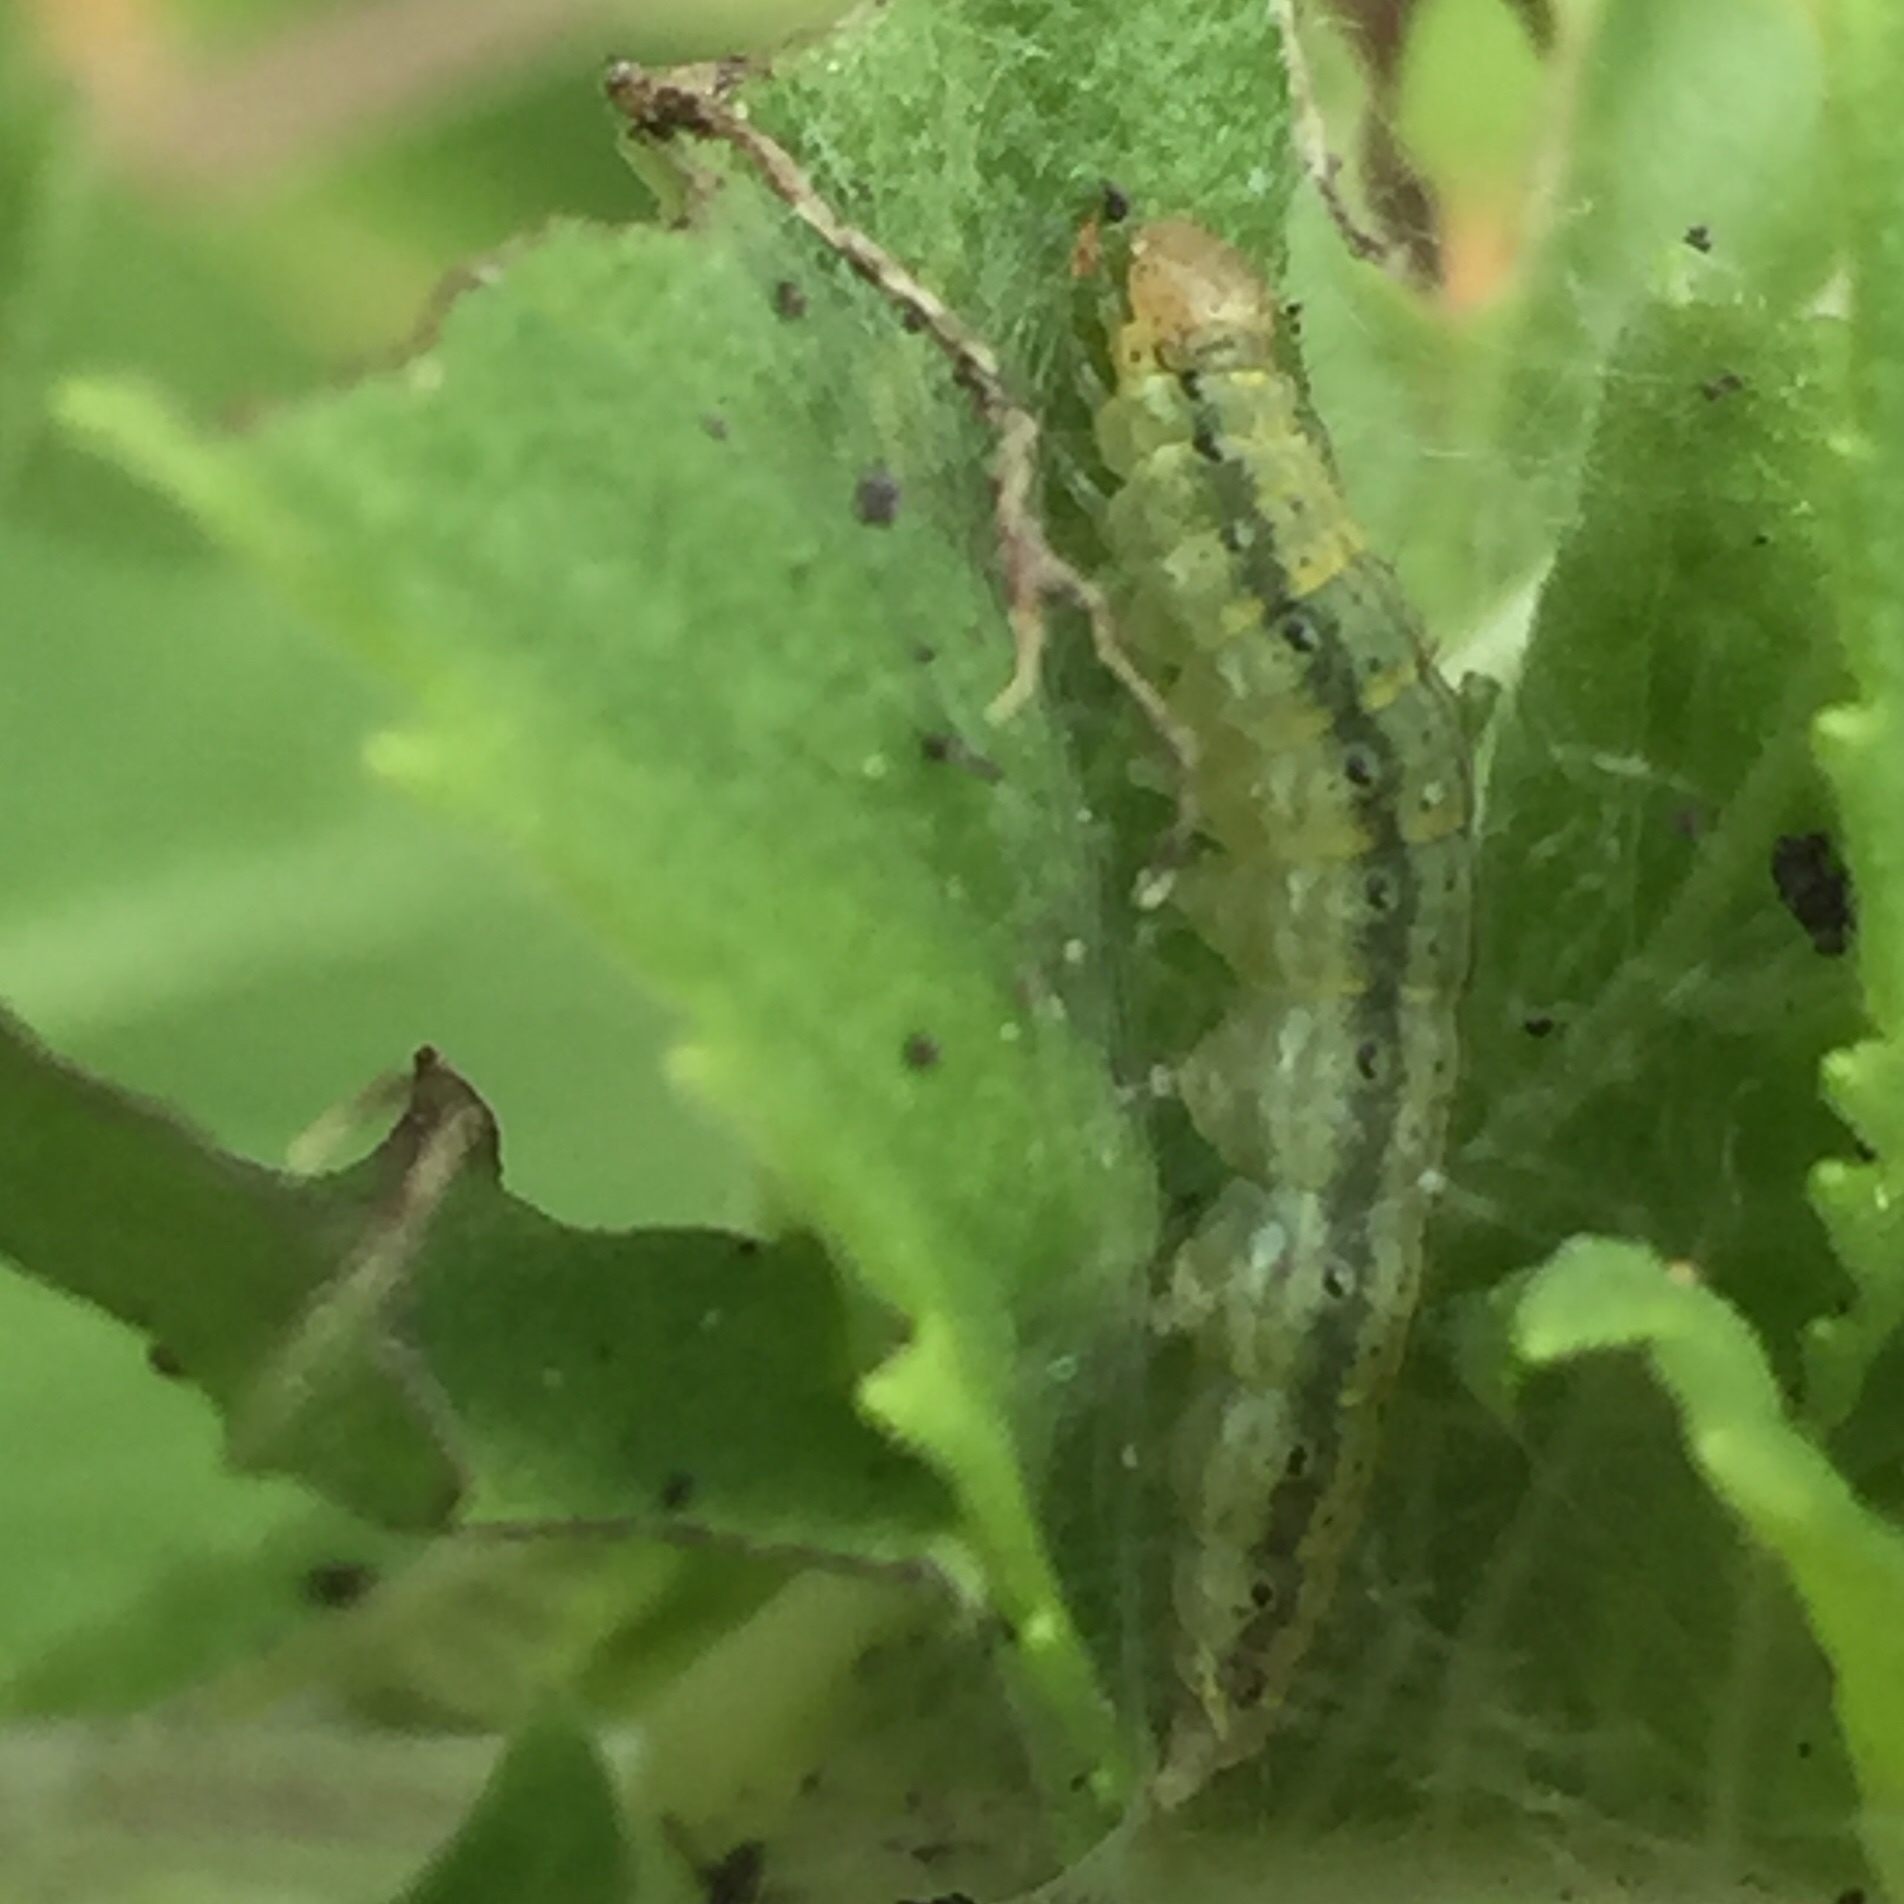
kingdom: Animalia
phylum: Arthropoda
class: Insecta
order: Lepidoptera
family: Crambidae
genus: Pyrausta
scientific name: Pyrausta orphisalis
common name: Orange mint moth
